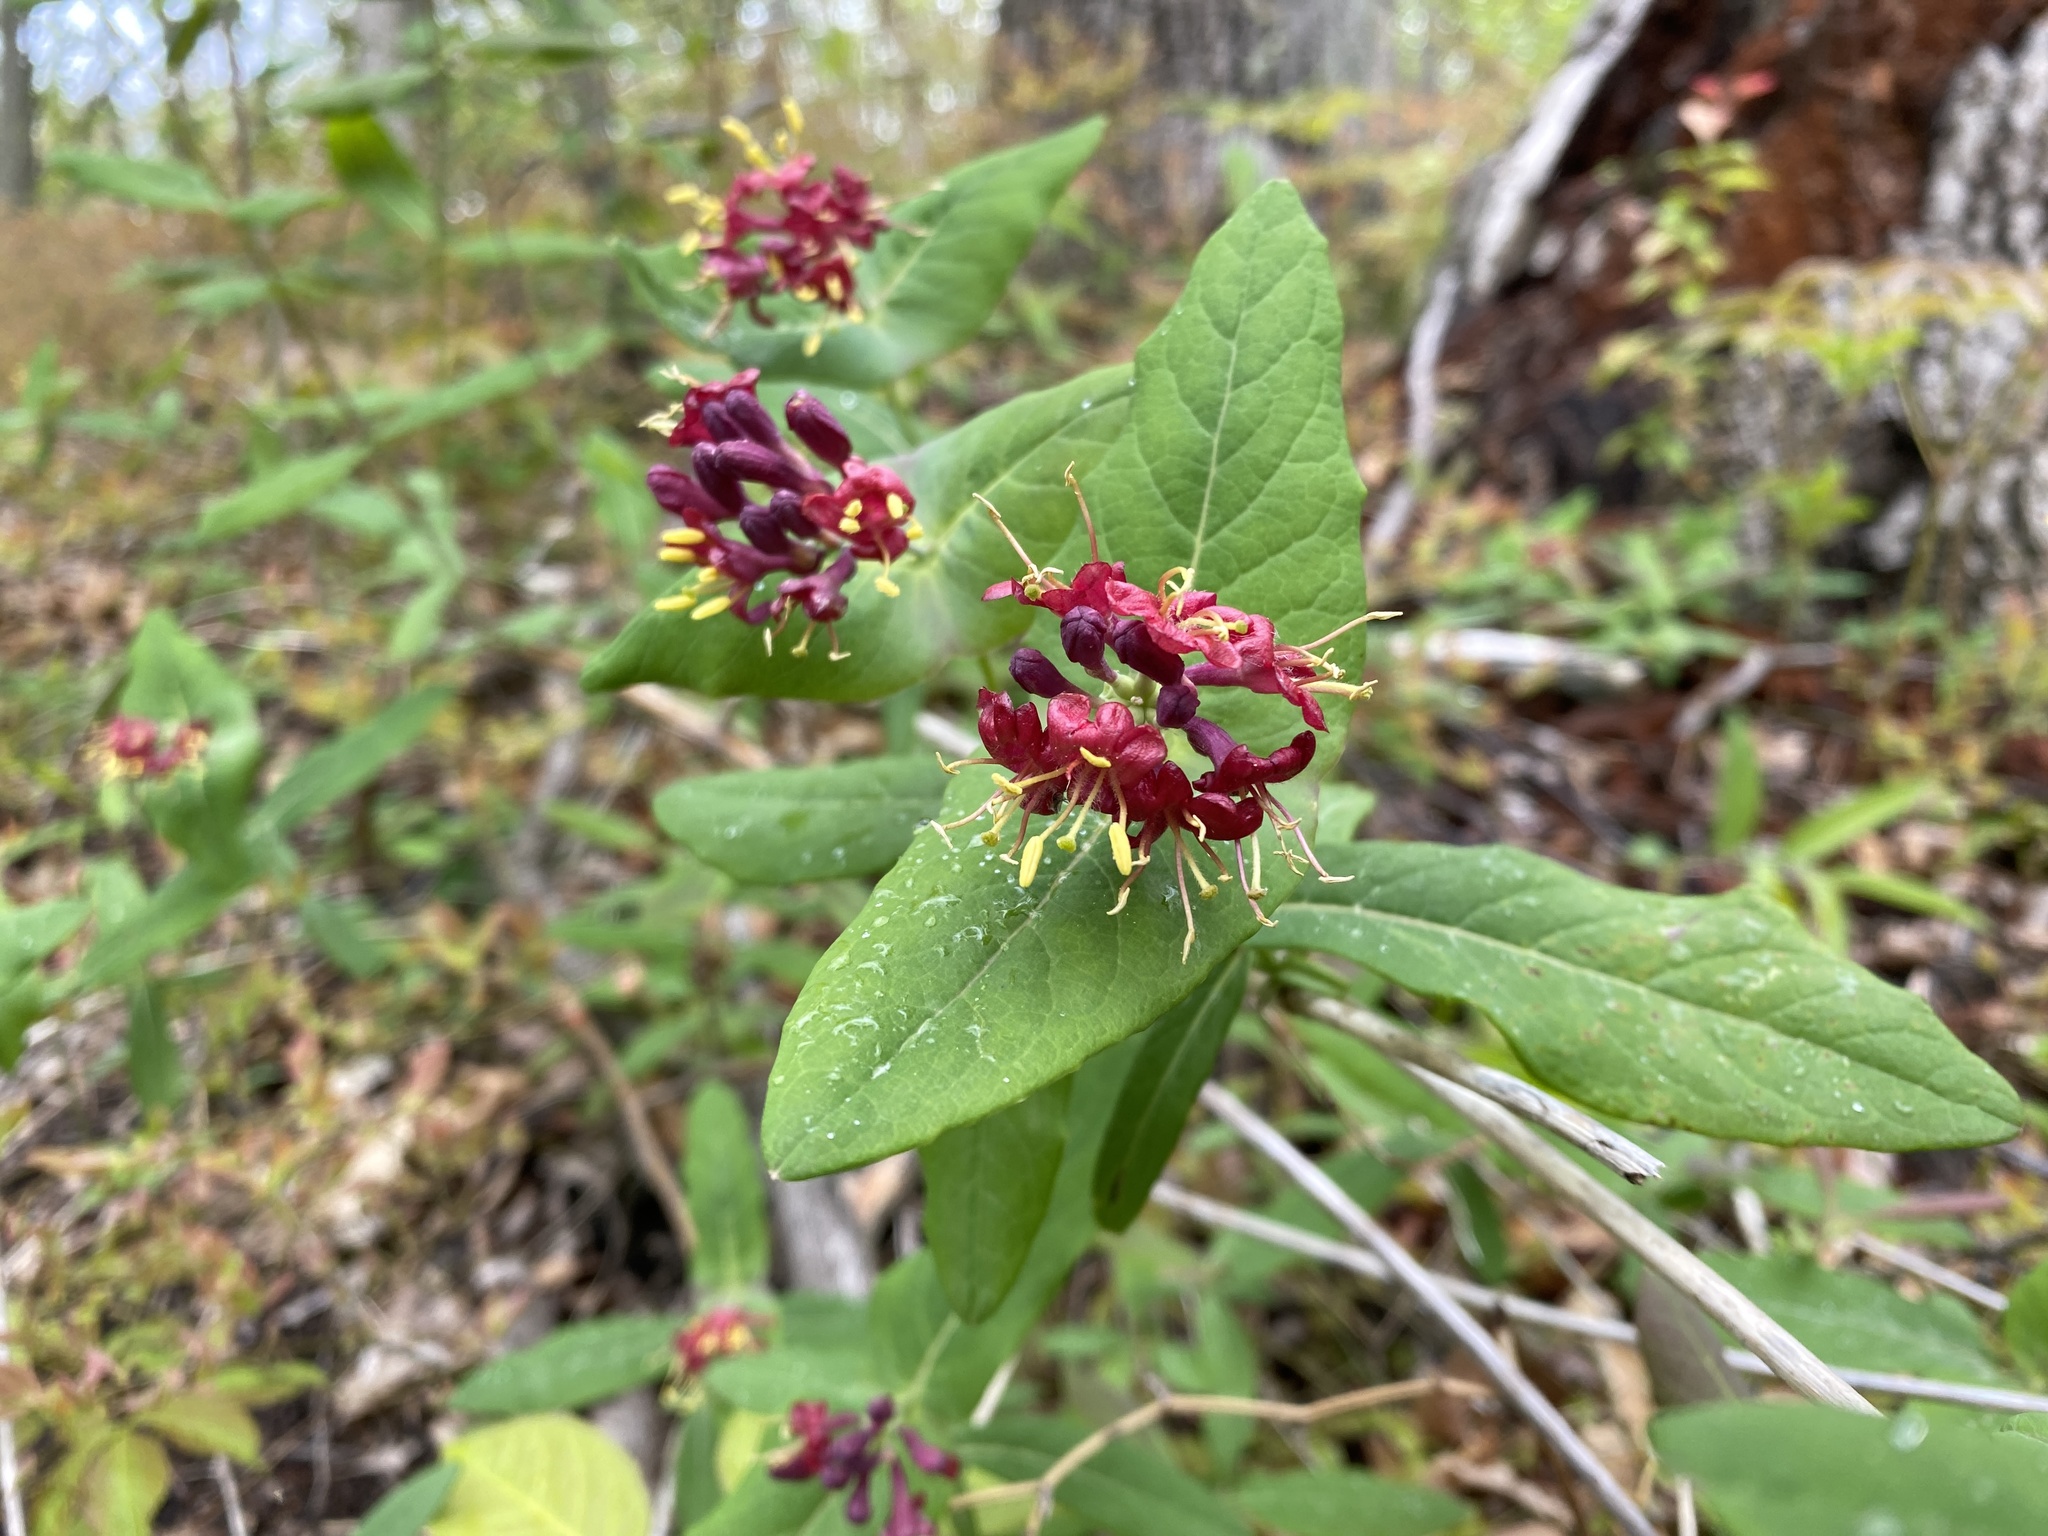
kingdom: Plantae
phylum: Tracheophyta
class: Magnoliopsida
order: Dipsacales
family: Caprifoliaceae
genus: Lonicera
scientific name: Lonicera dioica
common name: Limber honeysuckle
